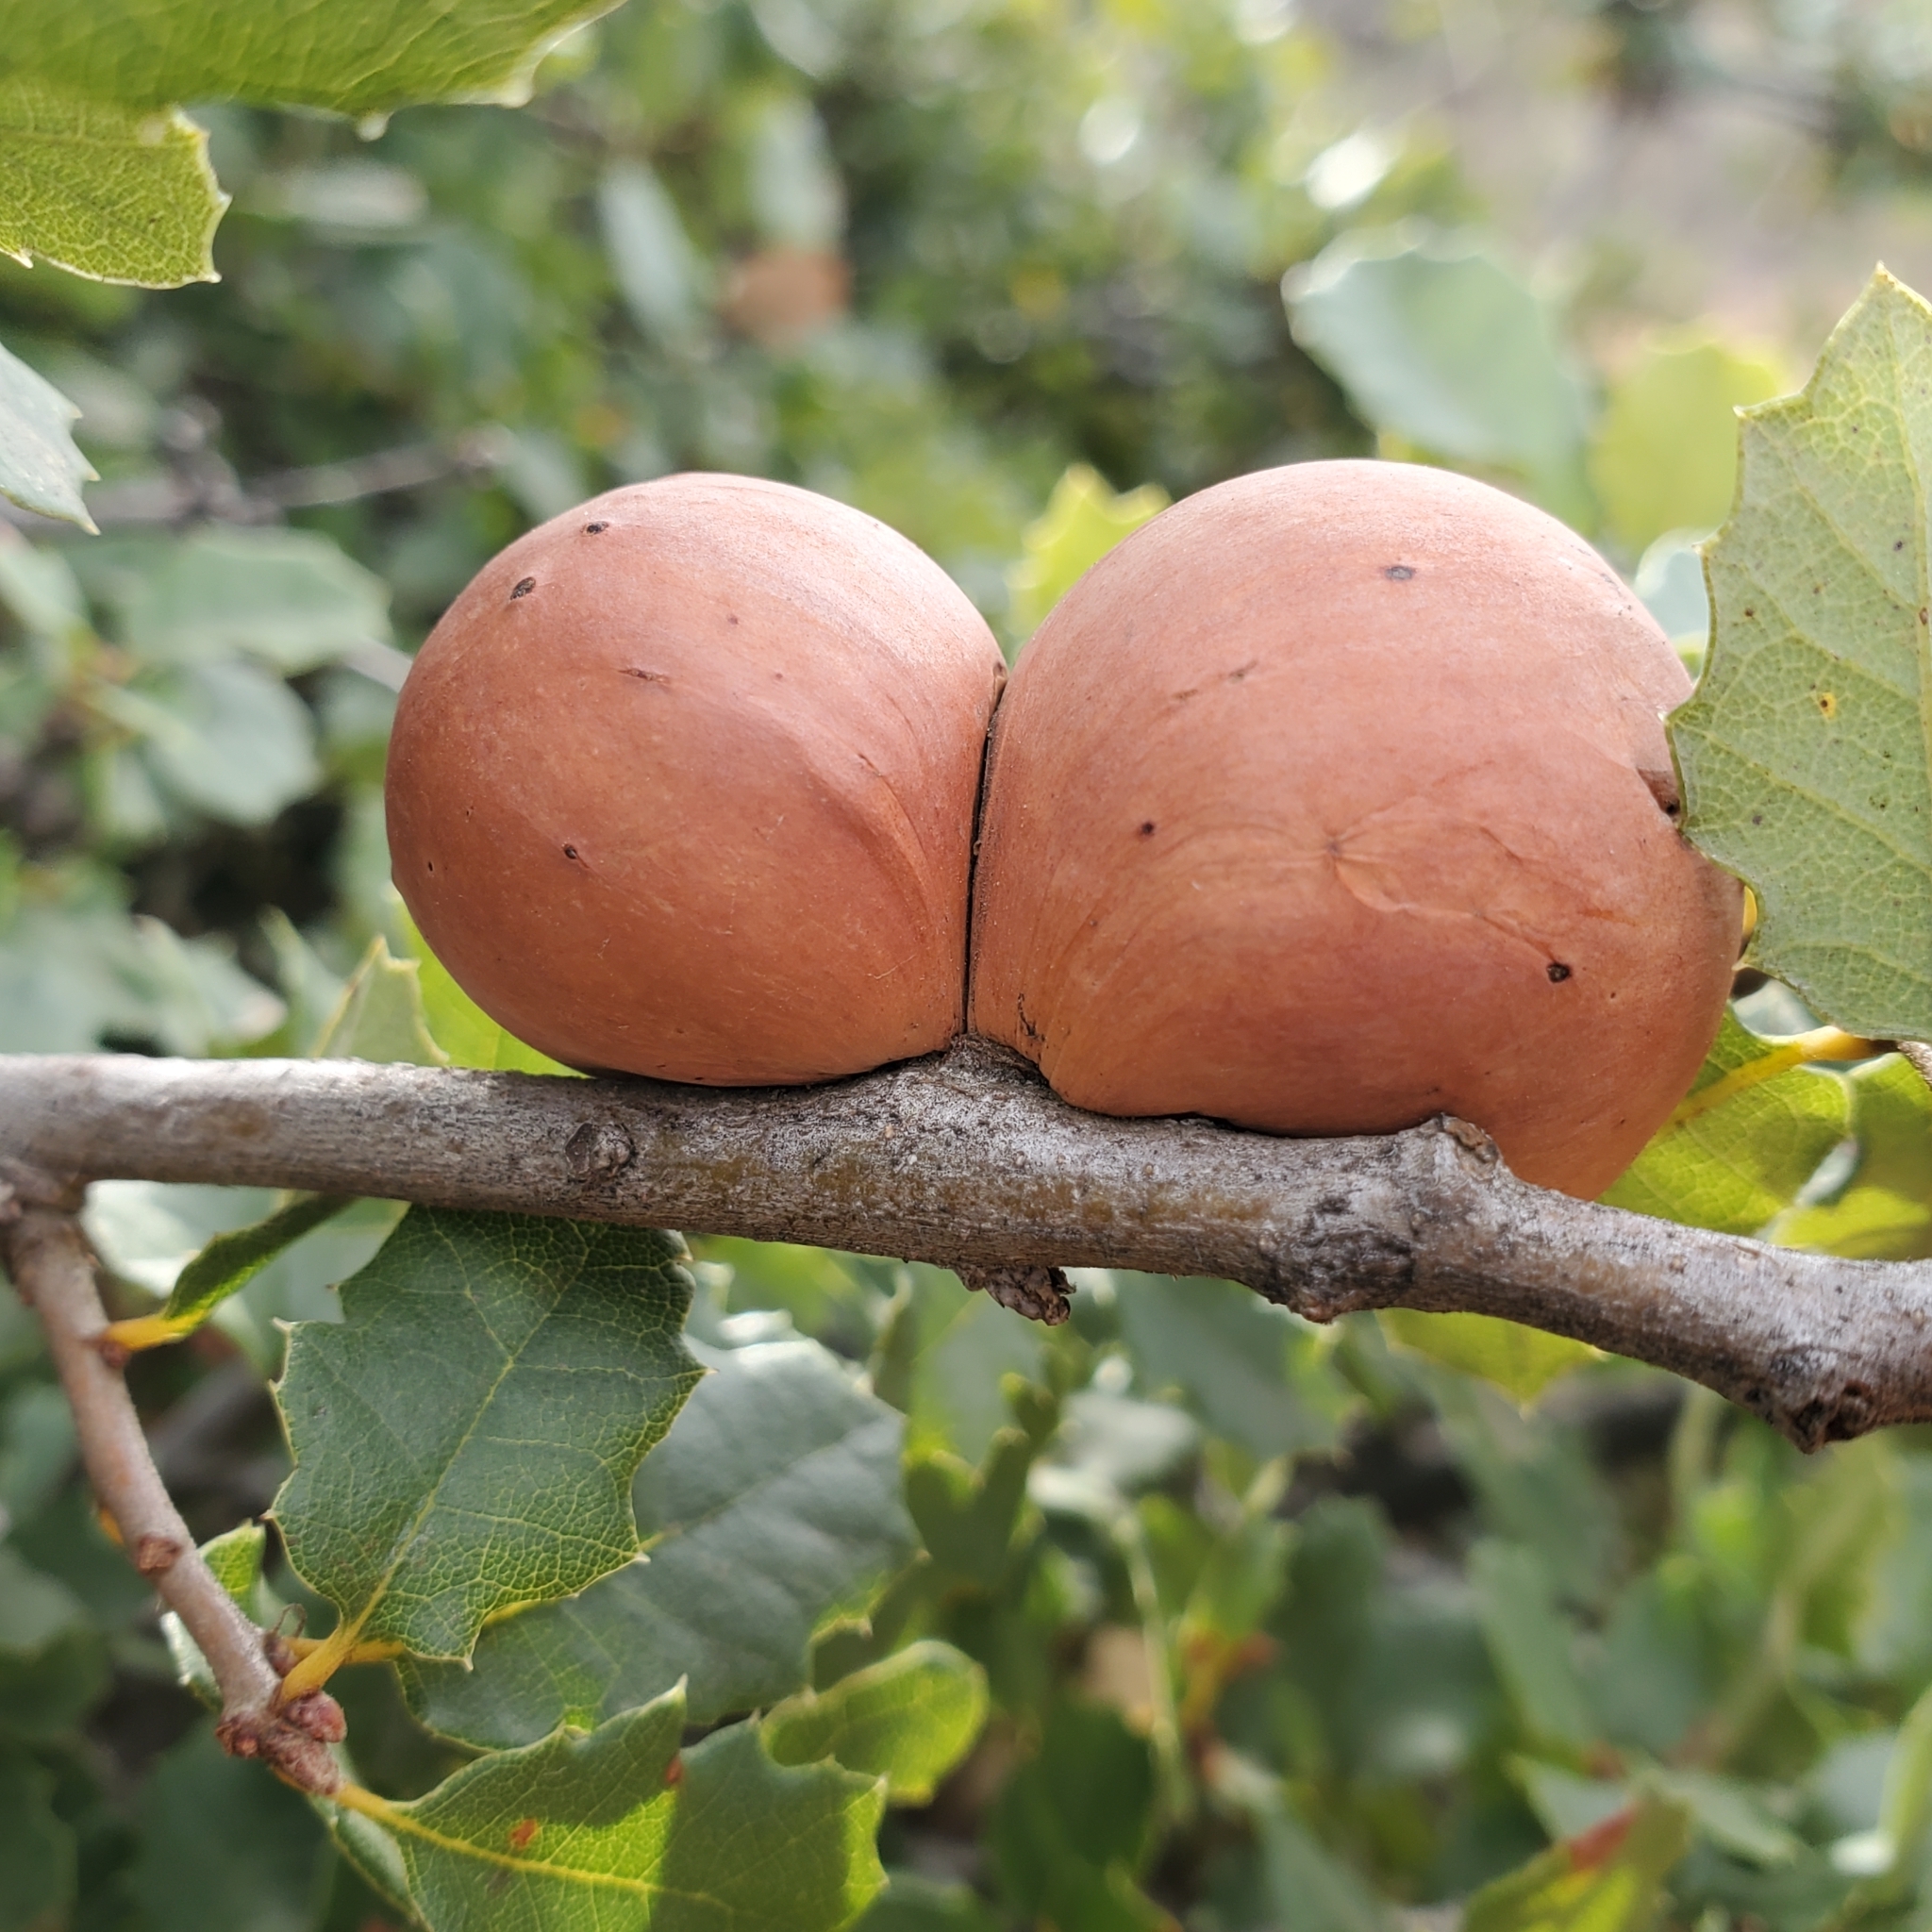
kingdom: Animalia
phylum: Arthropoda
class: Insecta
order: Hymenoptera
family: Cynipidae
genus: Andricus
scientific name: Andricus quercuscalifornicus
